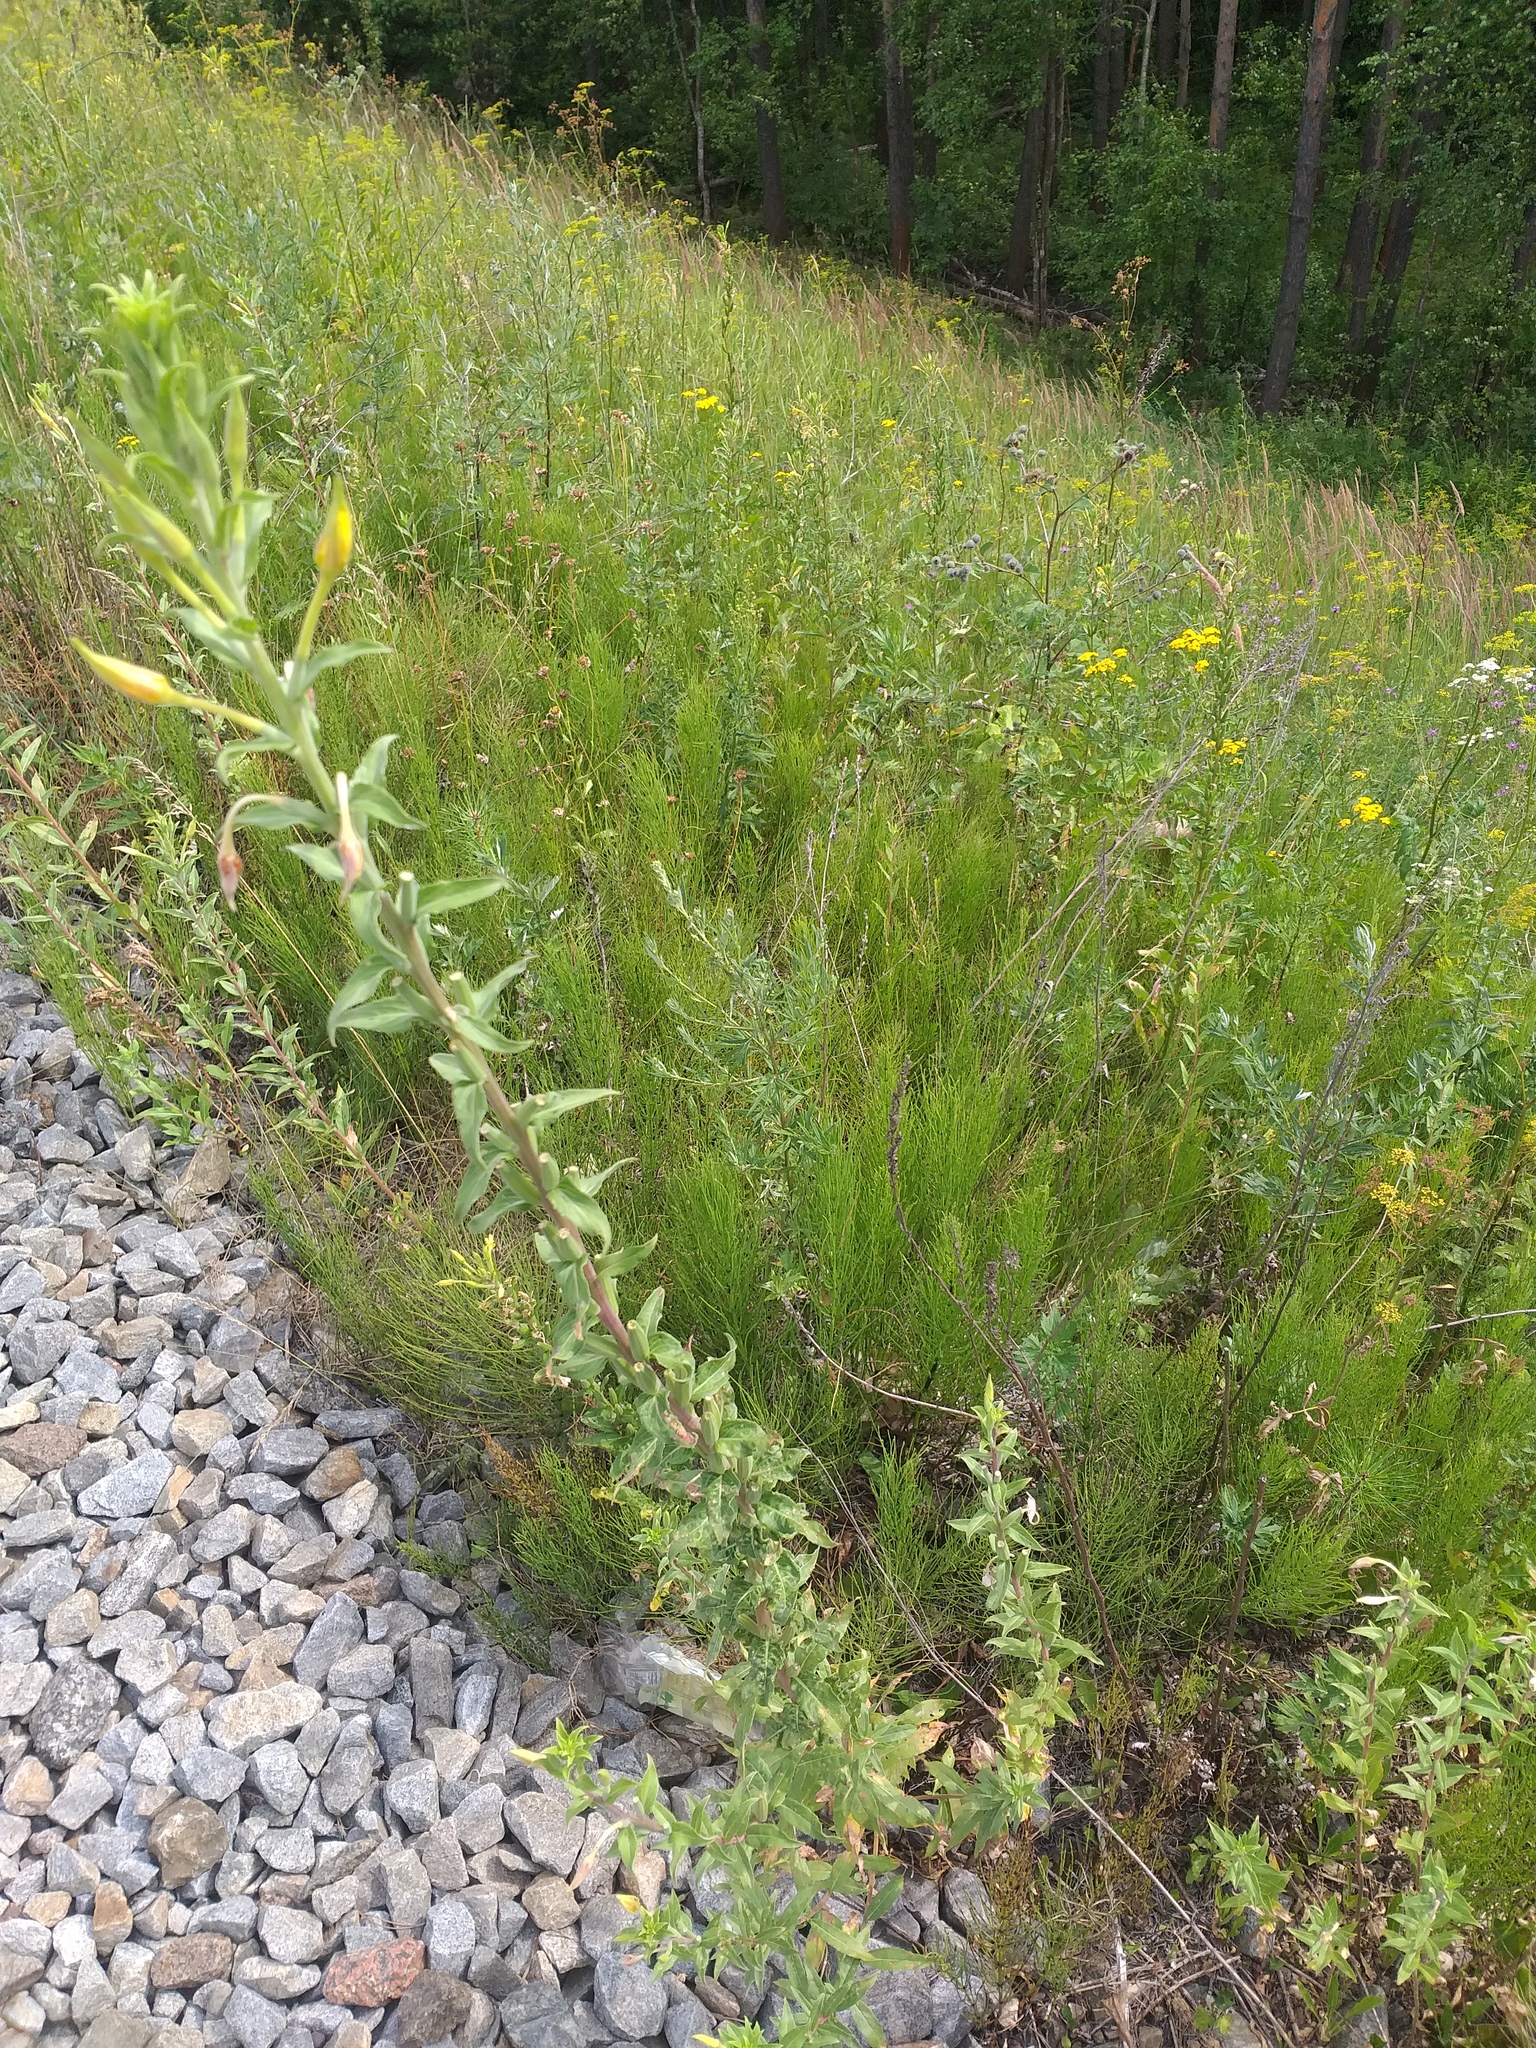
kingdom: Plantae
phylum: Tracheophyta
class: Magnoliopsida
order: Myrtales
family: Onagraceae
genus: Oenothera
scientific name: Oenothera villosa
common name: Hairy evening-primrose
